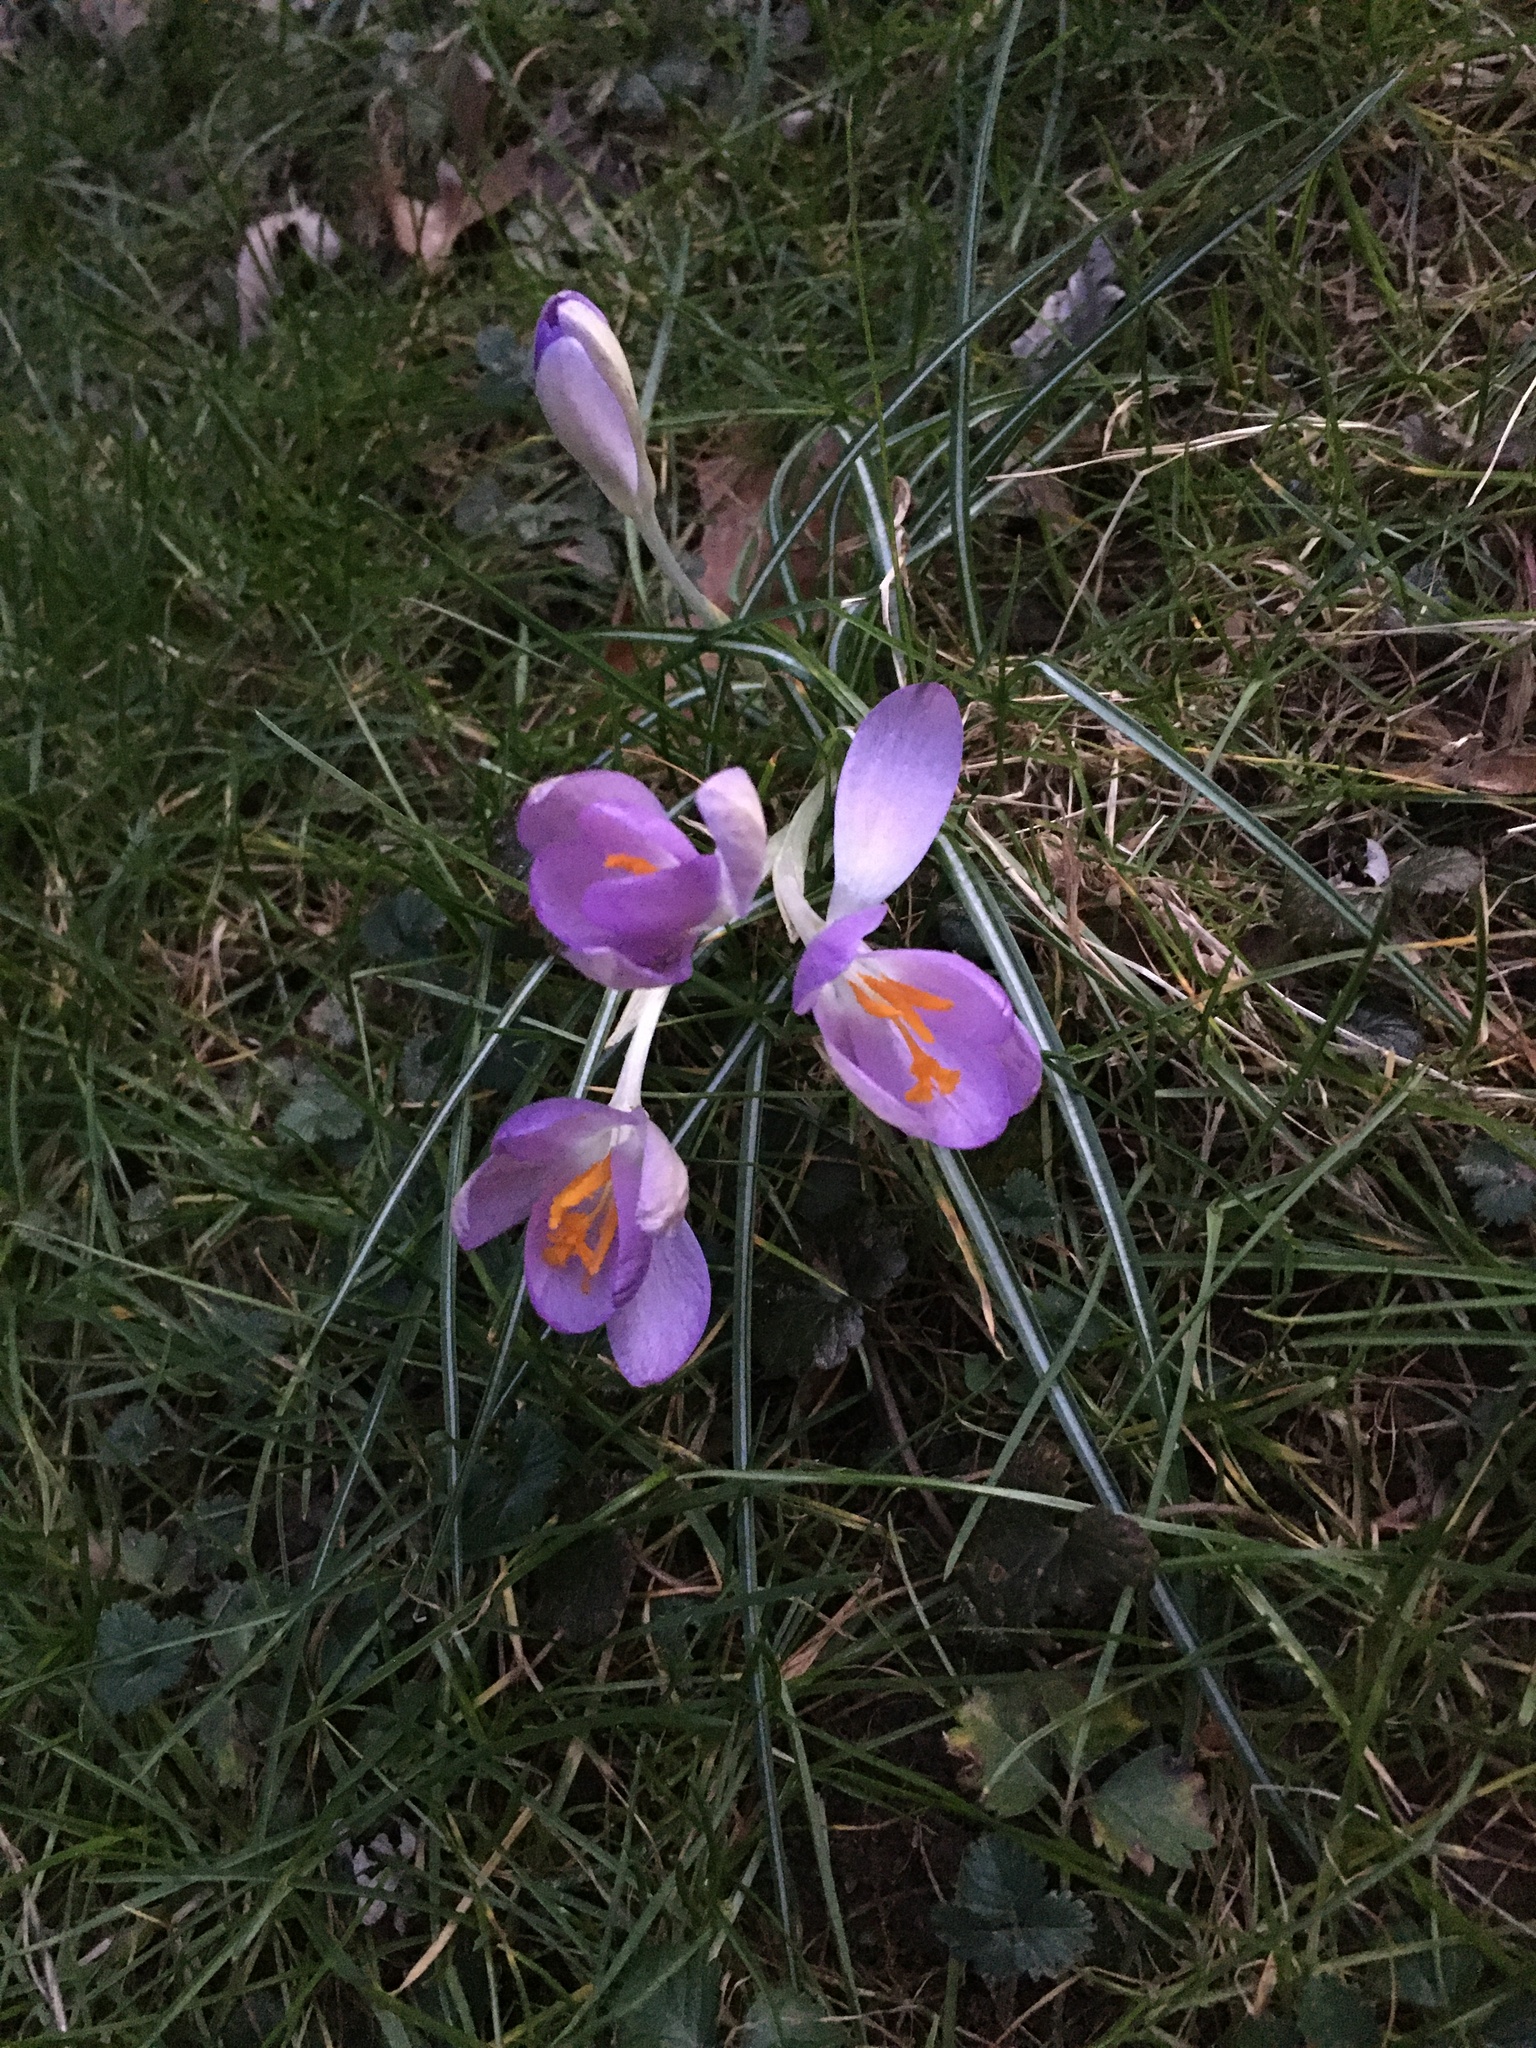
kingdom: Plantae
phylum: Tracheophyta
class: Liliopsida
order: Asparagales
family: Iridaceae
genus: Crocus
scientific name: Crocus tommasinianus
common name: Early crocus
